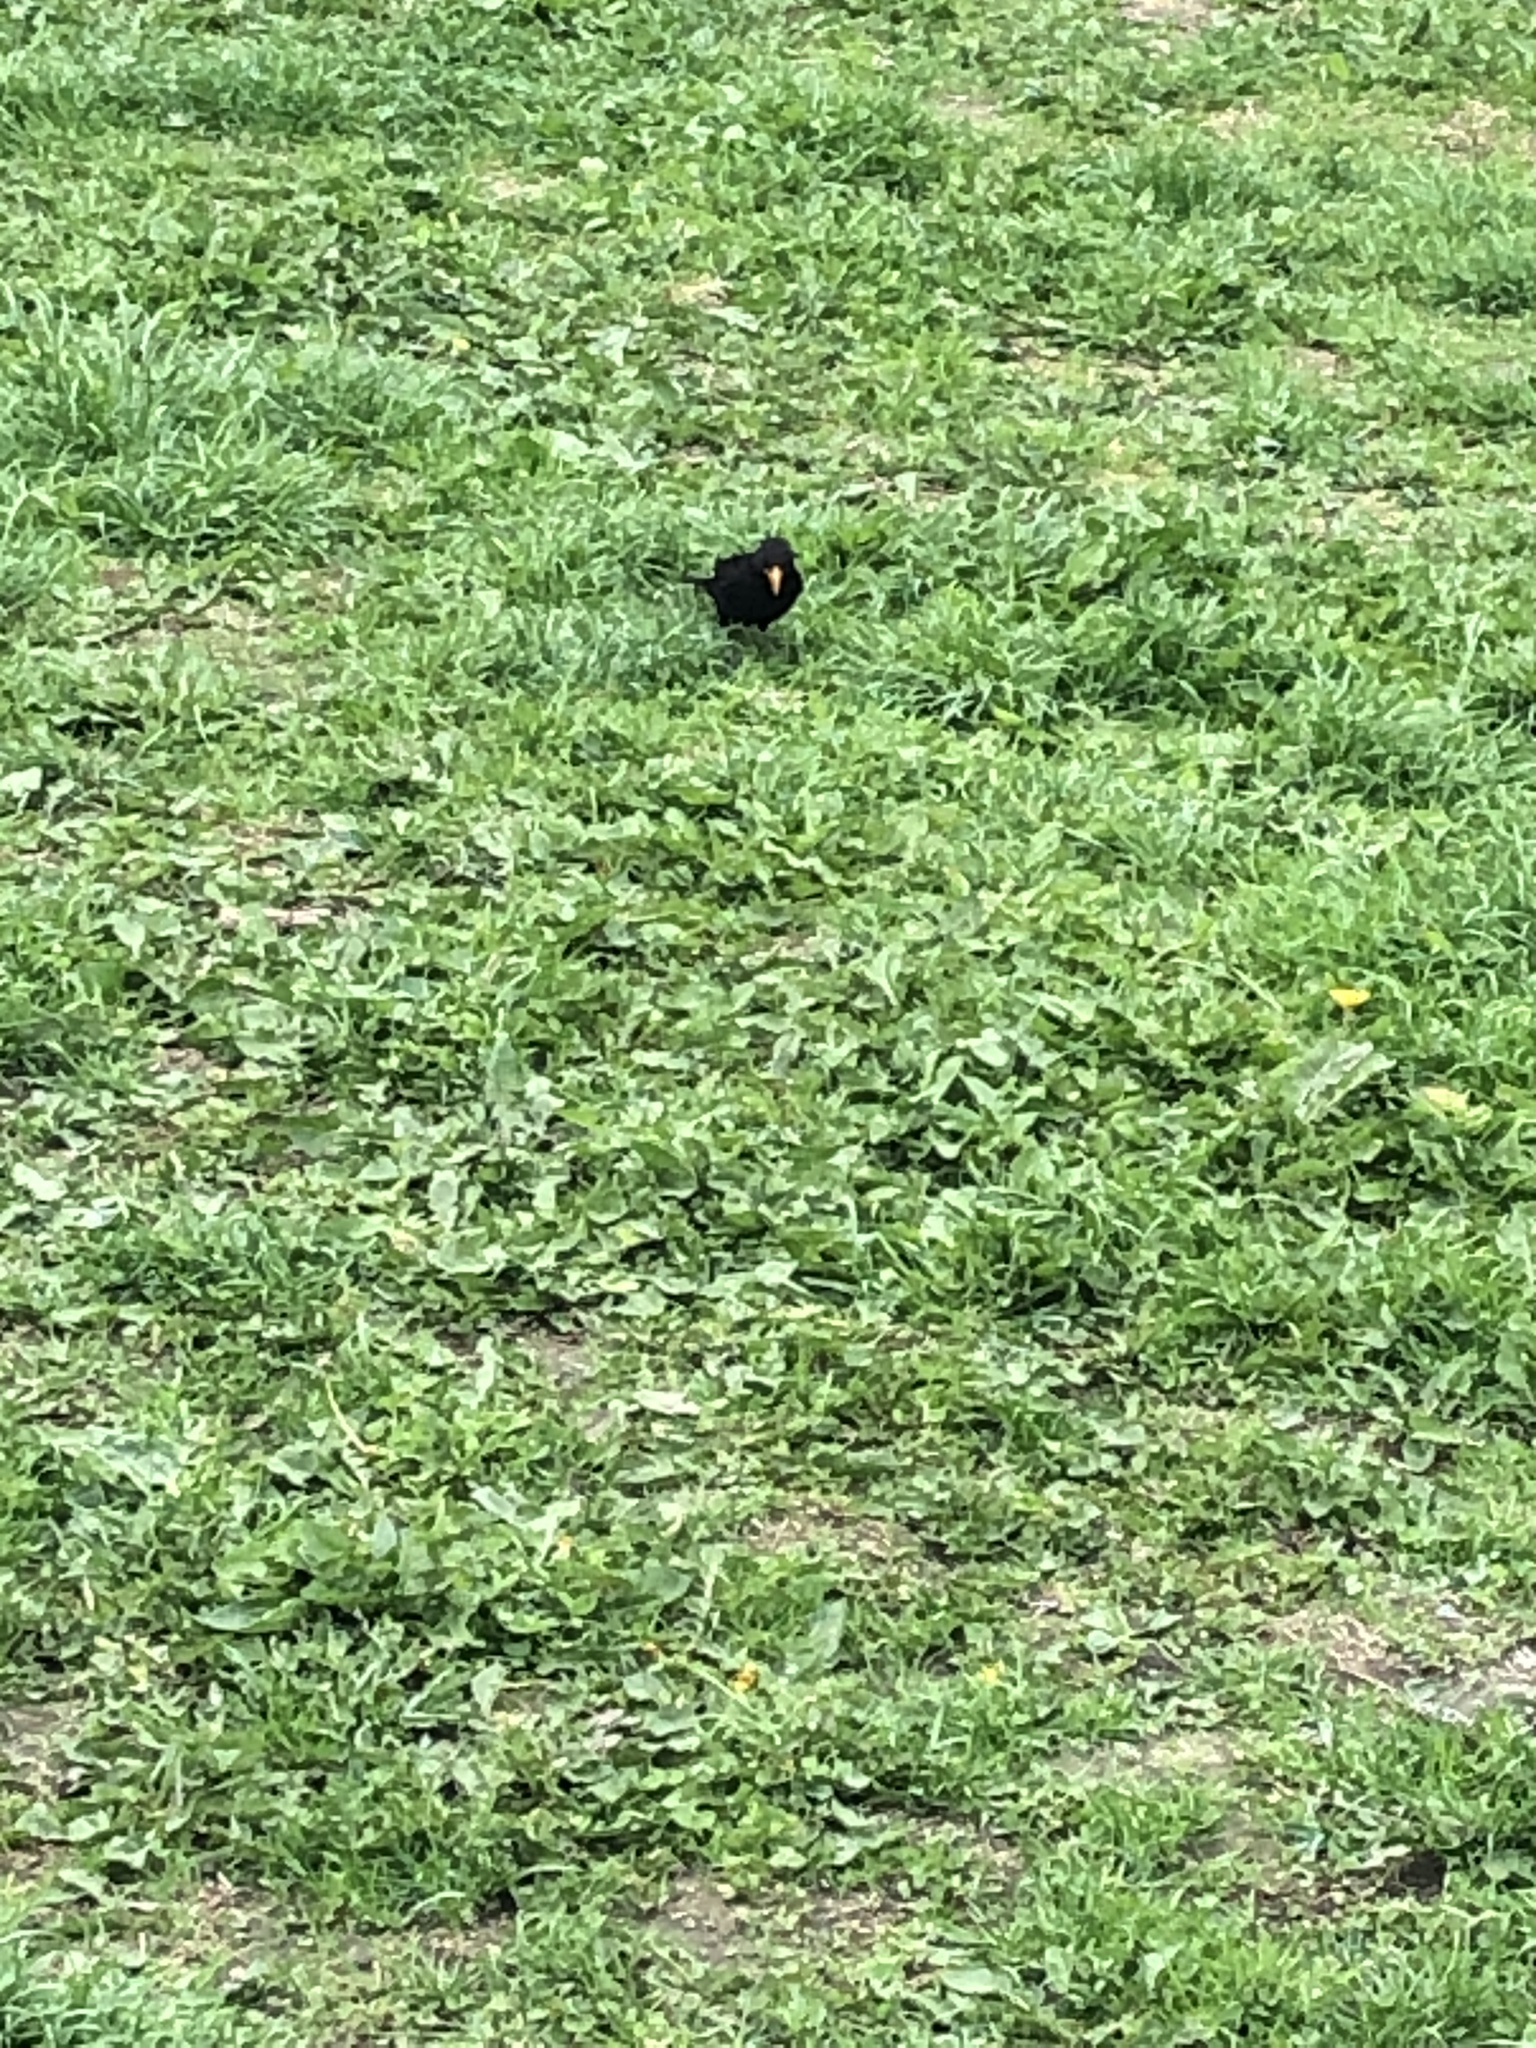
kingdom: Animalia
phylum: Chordata
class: Aves
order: Passeriformes
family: Turdidae
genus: Turdus
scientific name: Turdus merula
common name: Common blackbird
